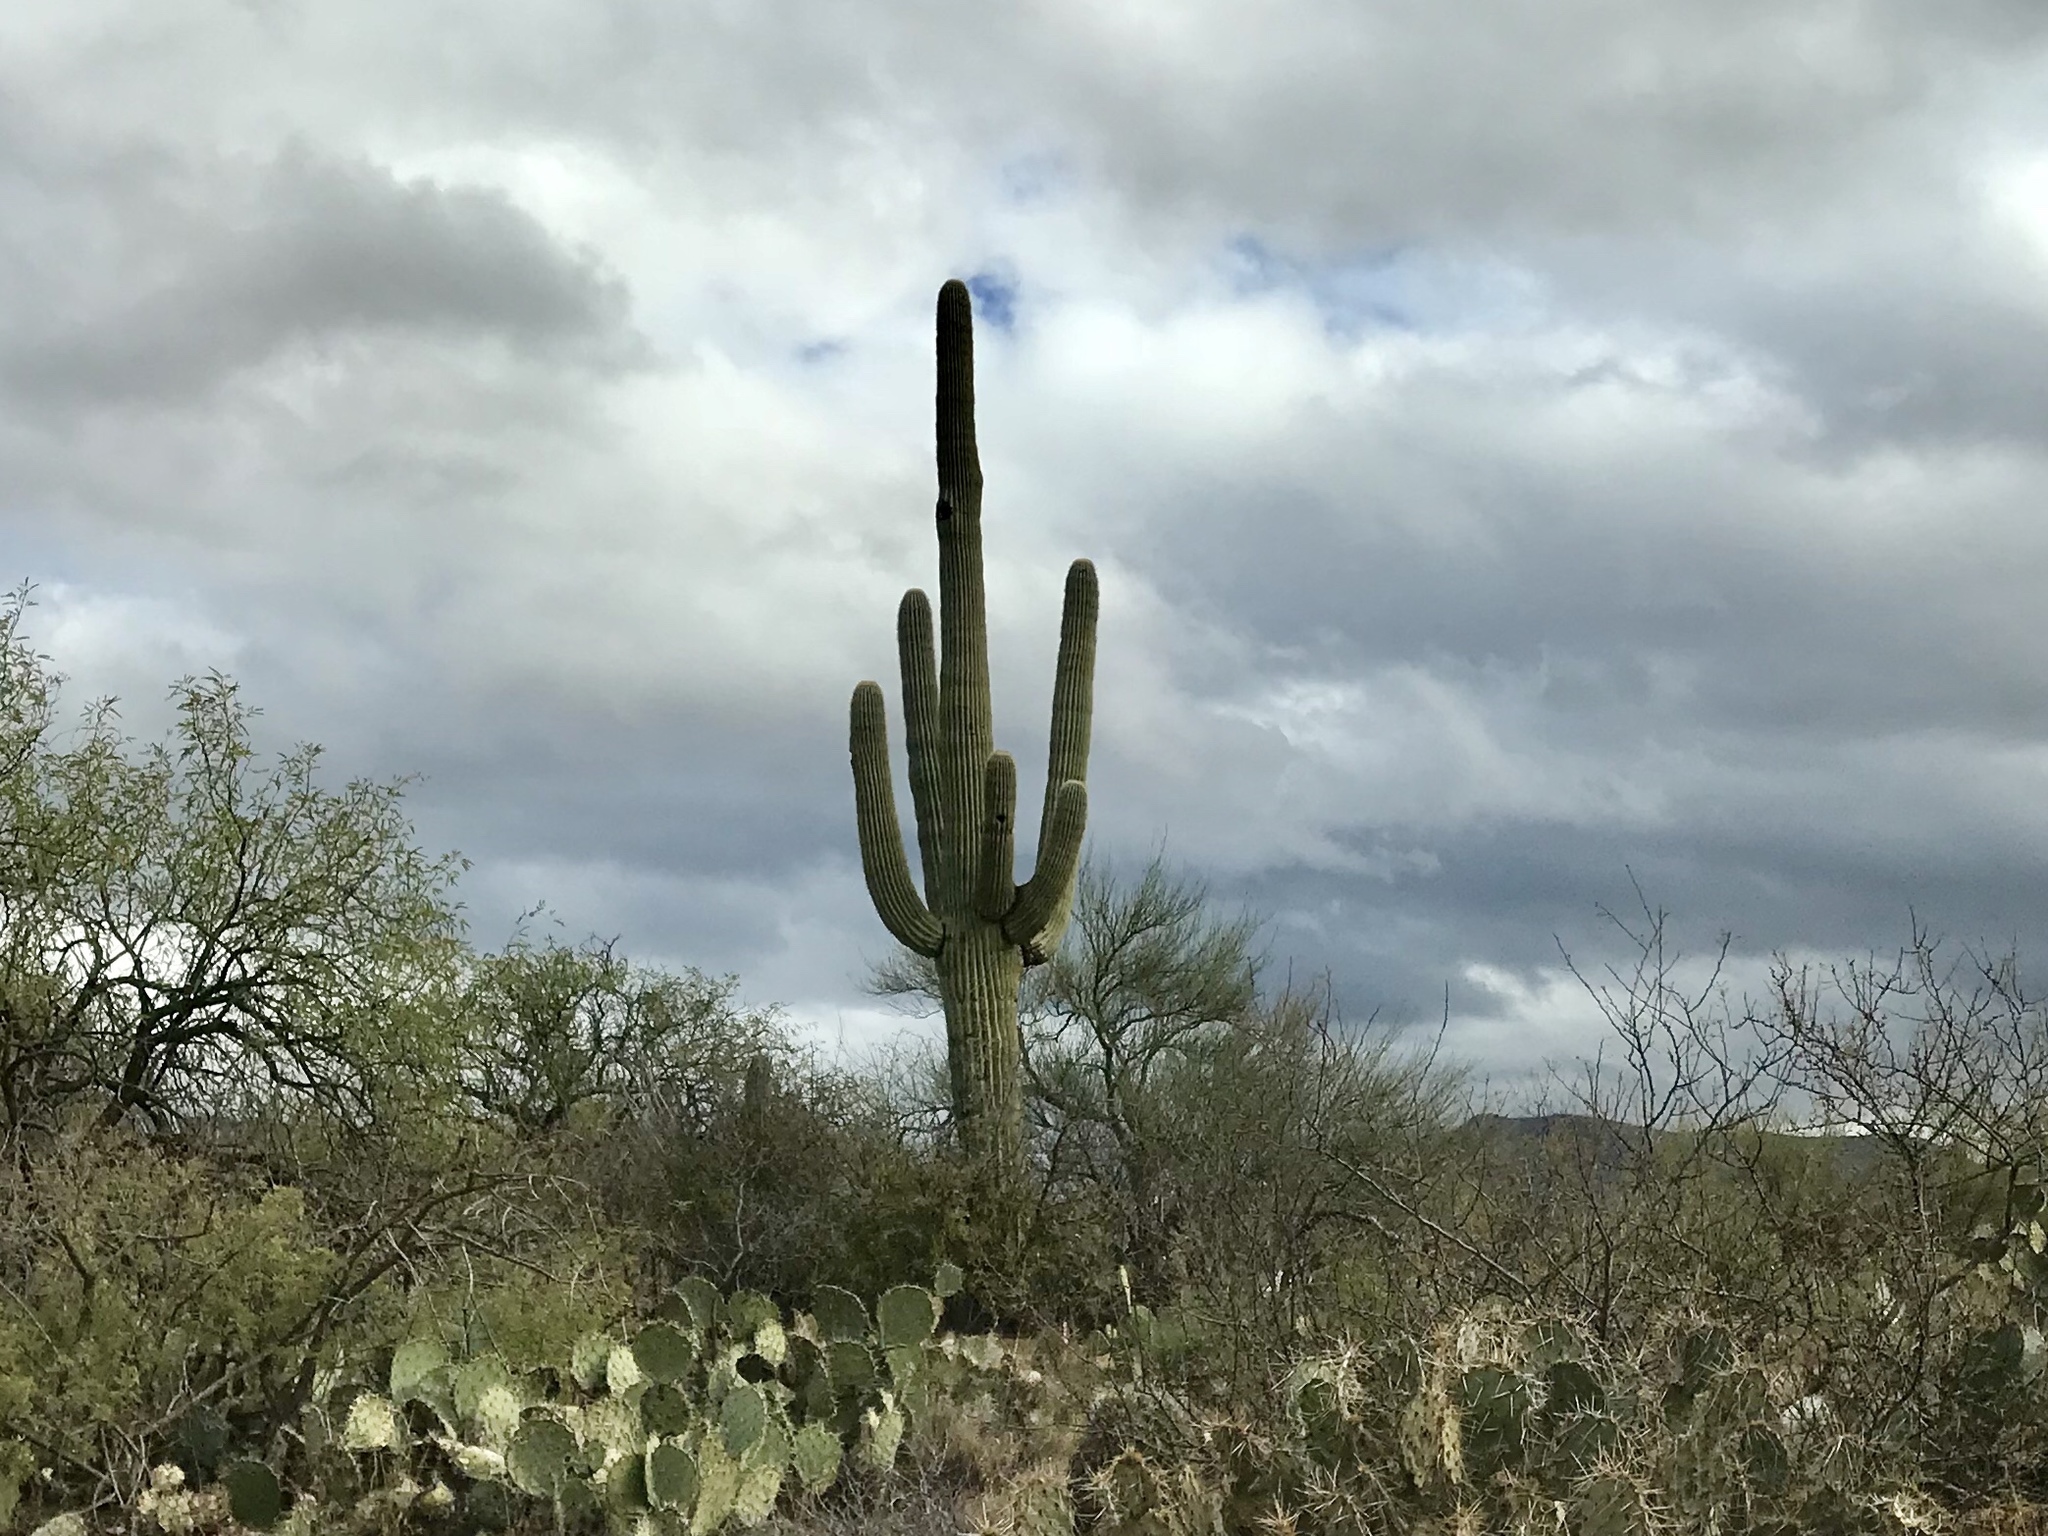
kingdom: Plantae
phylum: Tracheophyta
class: Magnoliopsida
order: Caryophyllales
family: Cactaceae
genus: Carnegiea
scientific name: Carnegiea gigantea
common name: Saguaro
